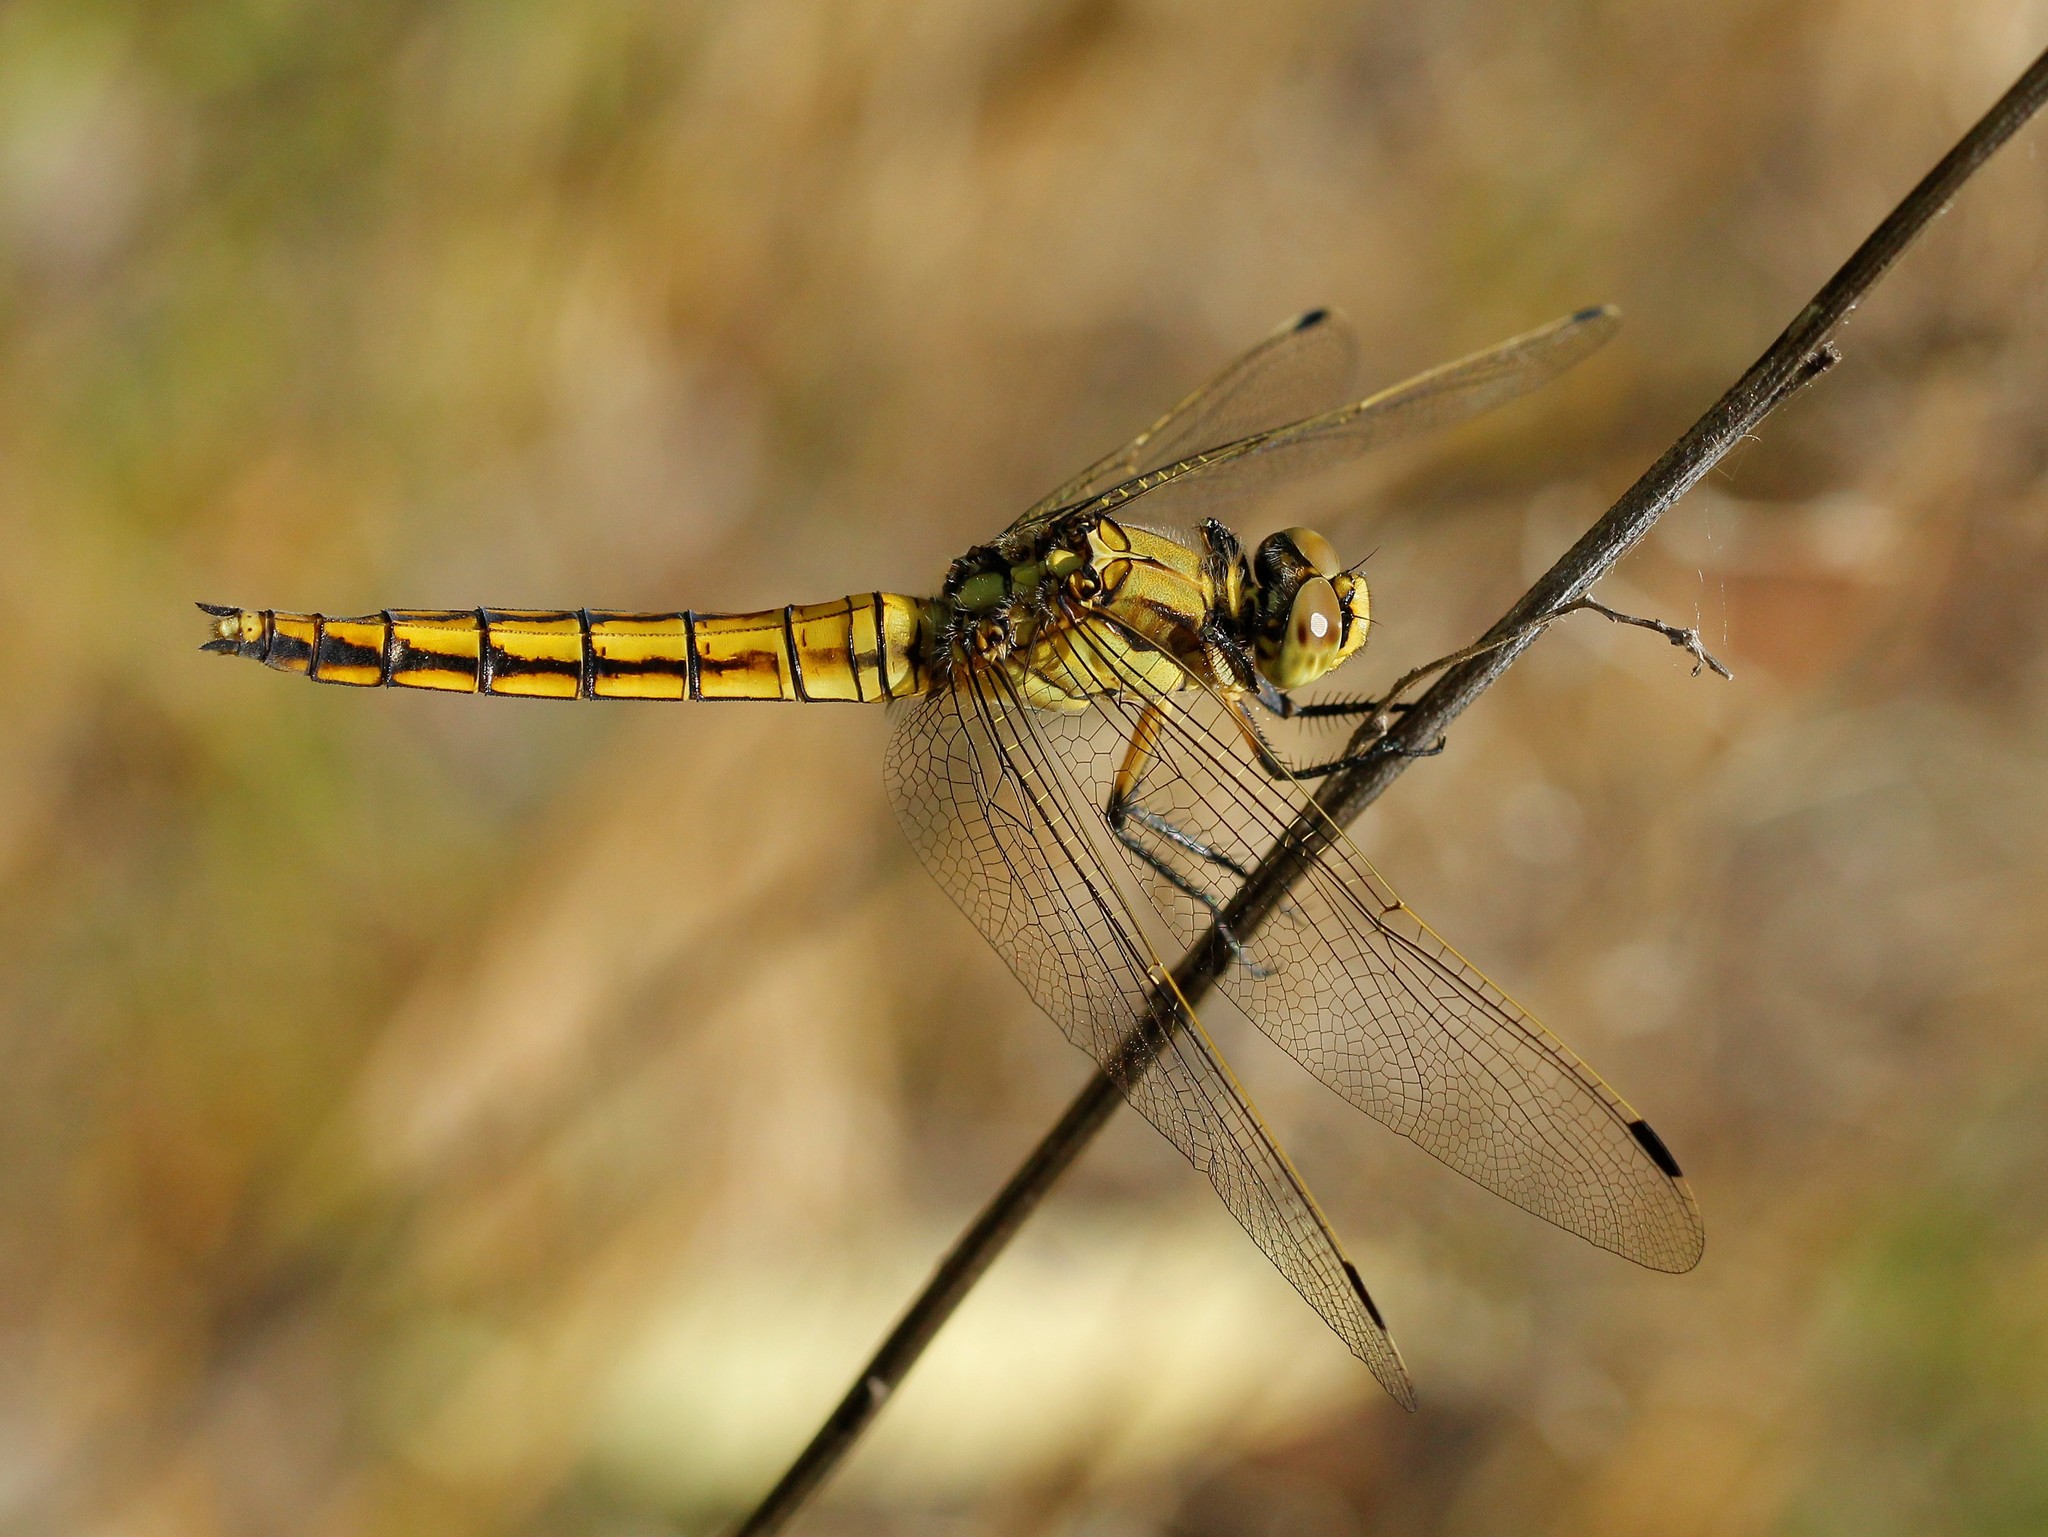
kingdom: Animalia
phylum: Arthropoda
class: Insecta
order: Odonata
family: Libellulidae
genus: Orthetrum
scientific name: Orthetrum cancellatum
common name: Black-tailed skimmer
